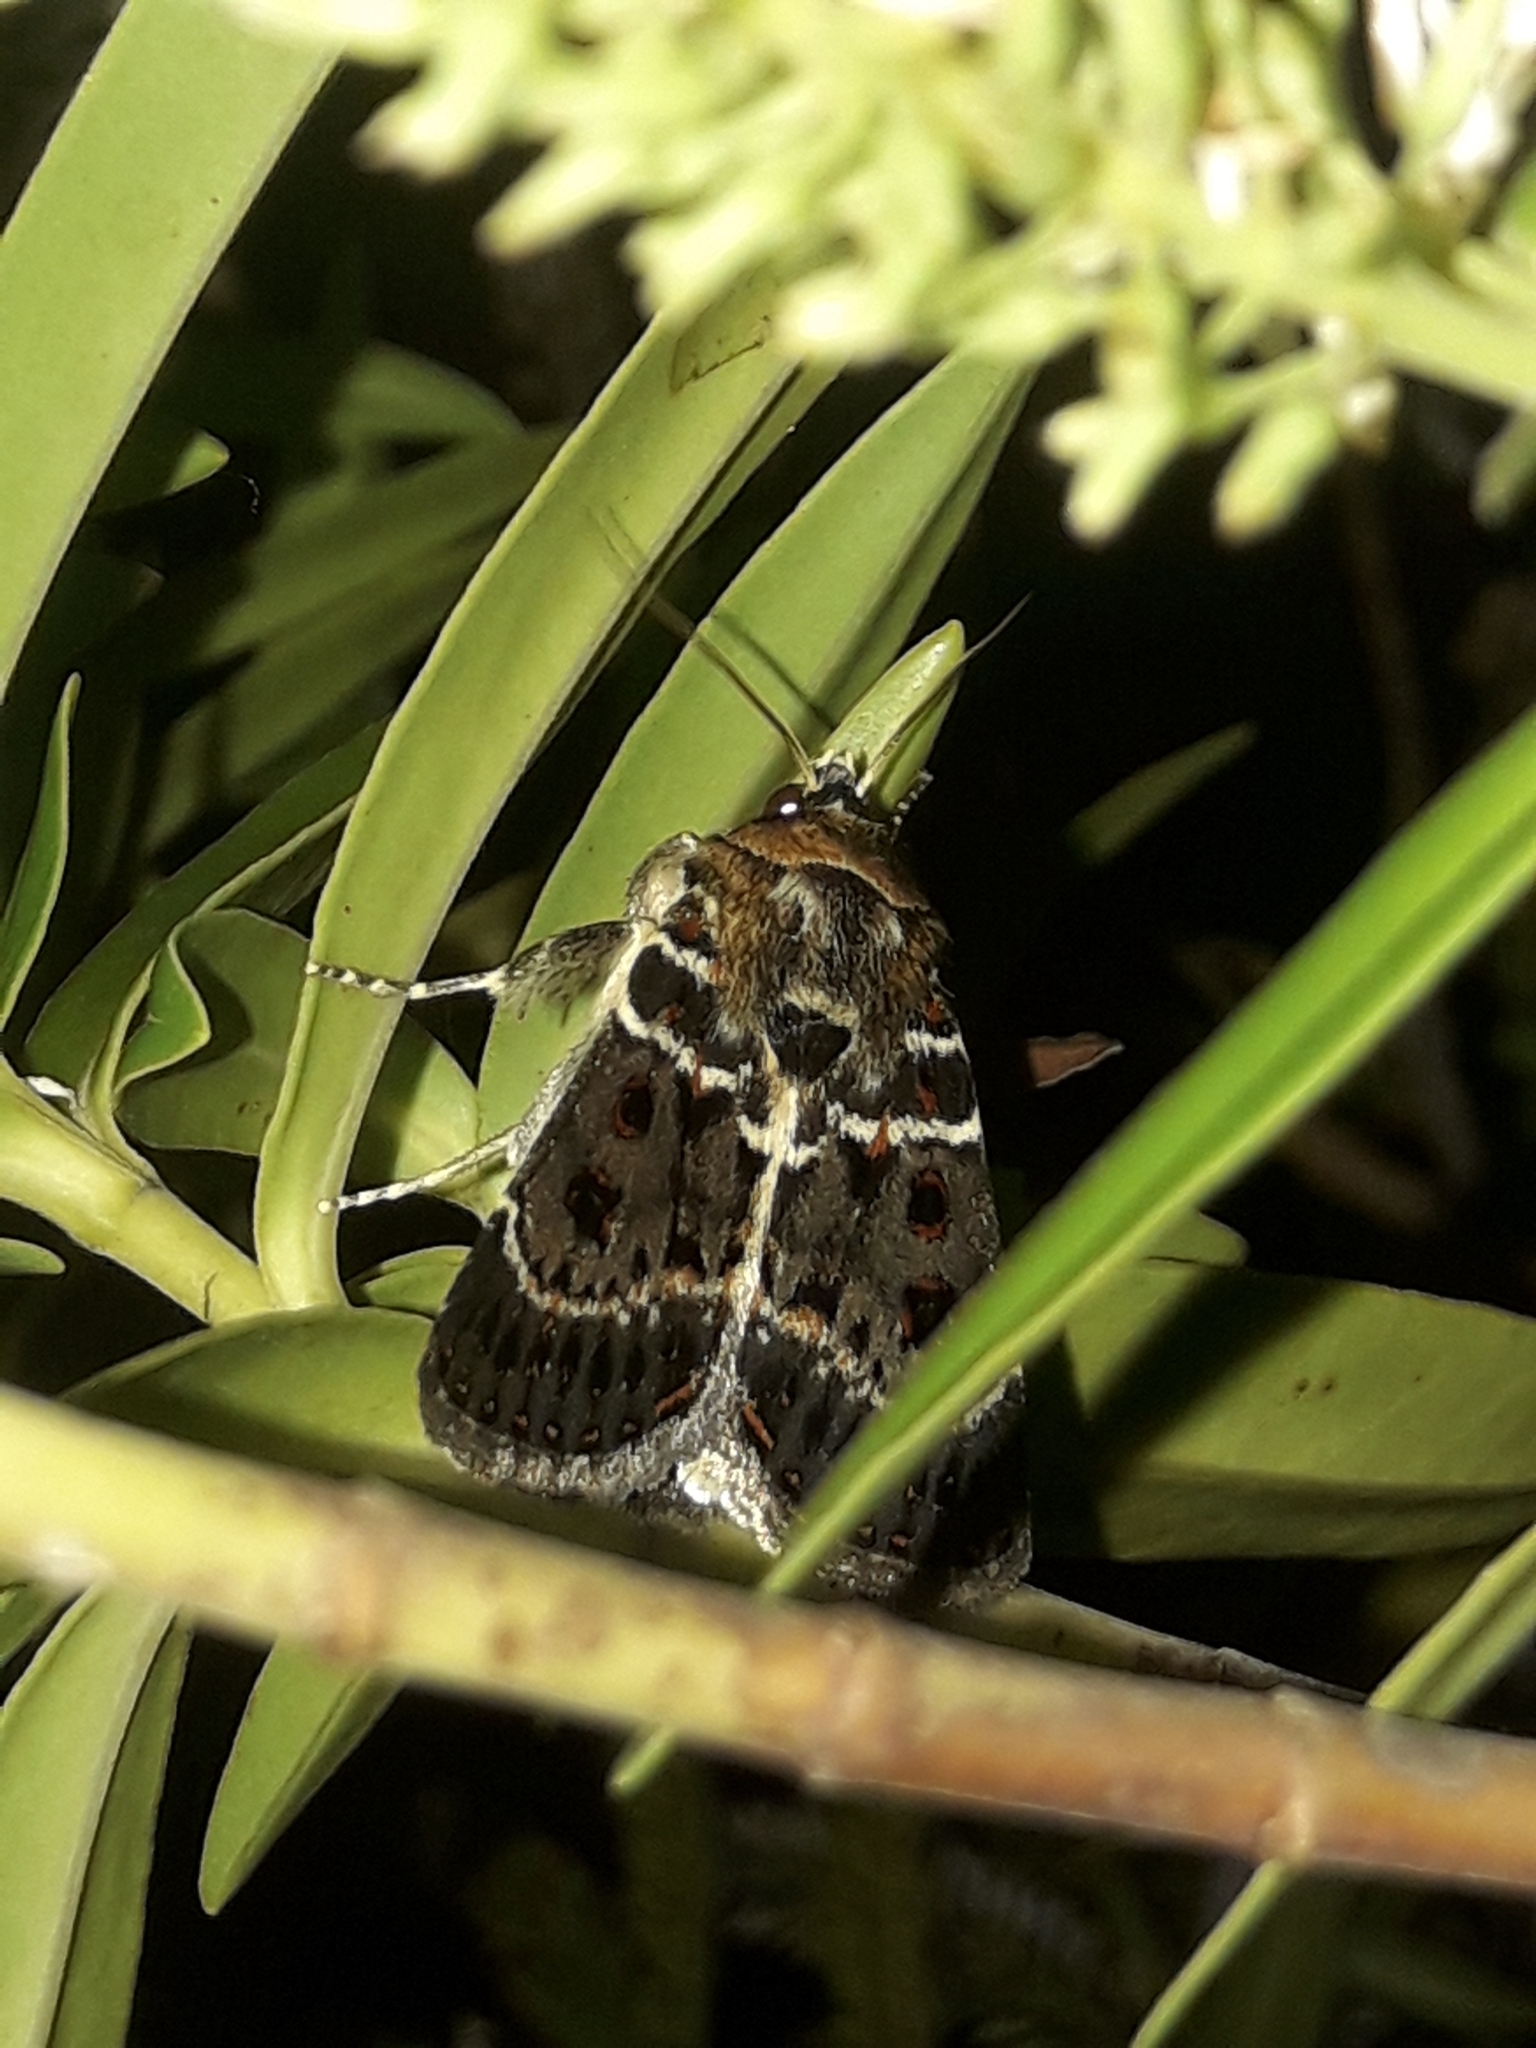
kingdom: Animalia
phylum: Arthropoda
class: Insecta
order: Lepidoptera
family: Noctuidae
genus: Proteuxoa
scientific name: Proteuxoa sanguinipuncta
